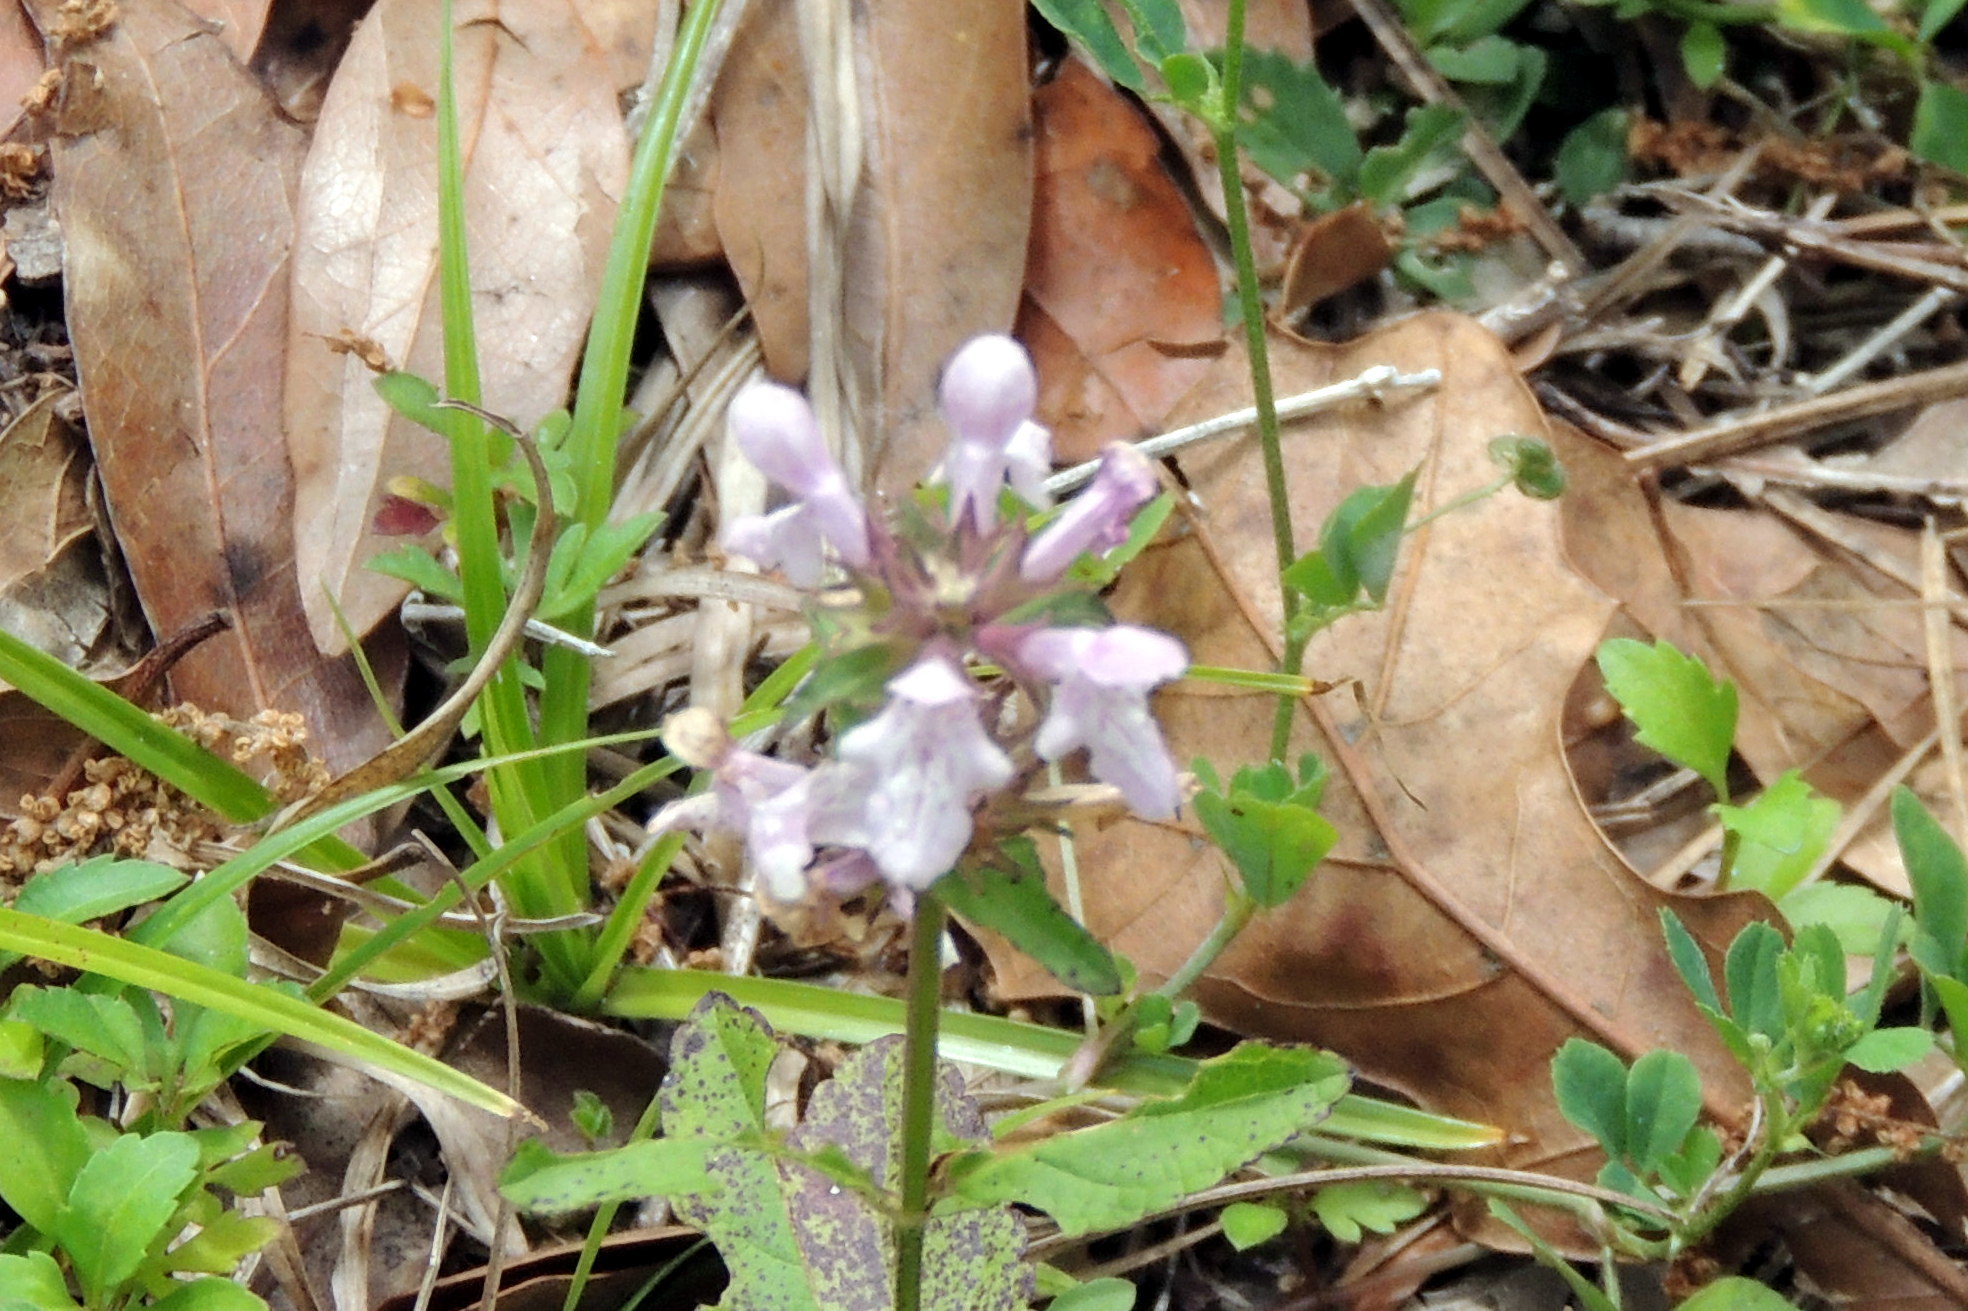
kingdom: Plantae
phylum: Tracheophyta
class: Magnoliopsida
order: Lamiales
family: Lamiaceae
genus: Stachys
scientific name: Stachys floridana
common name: Florida betony
